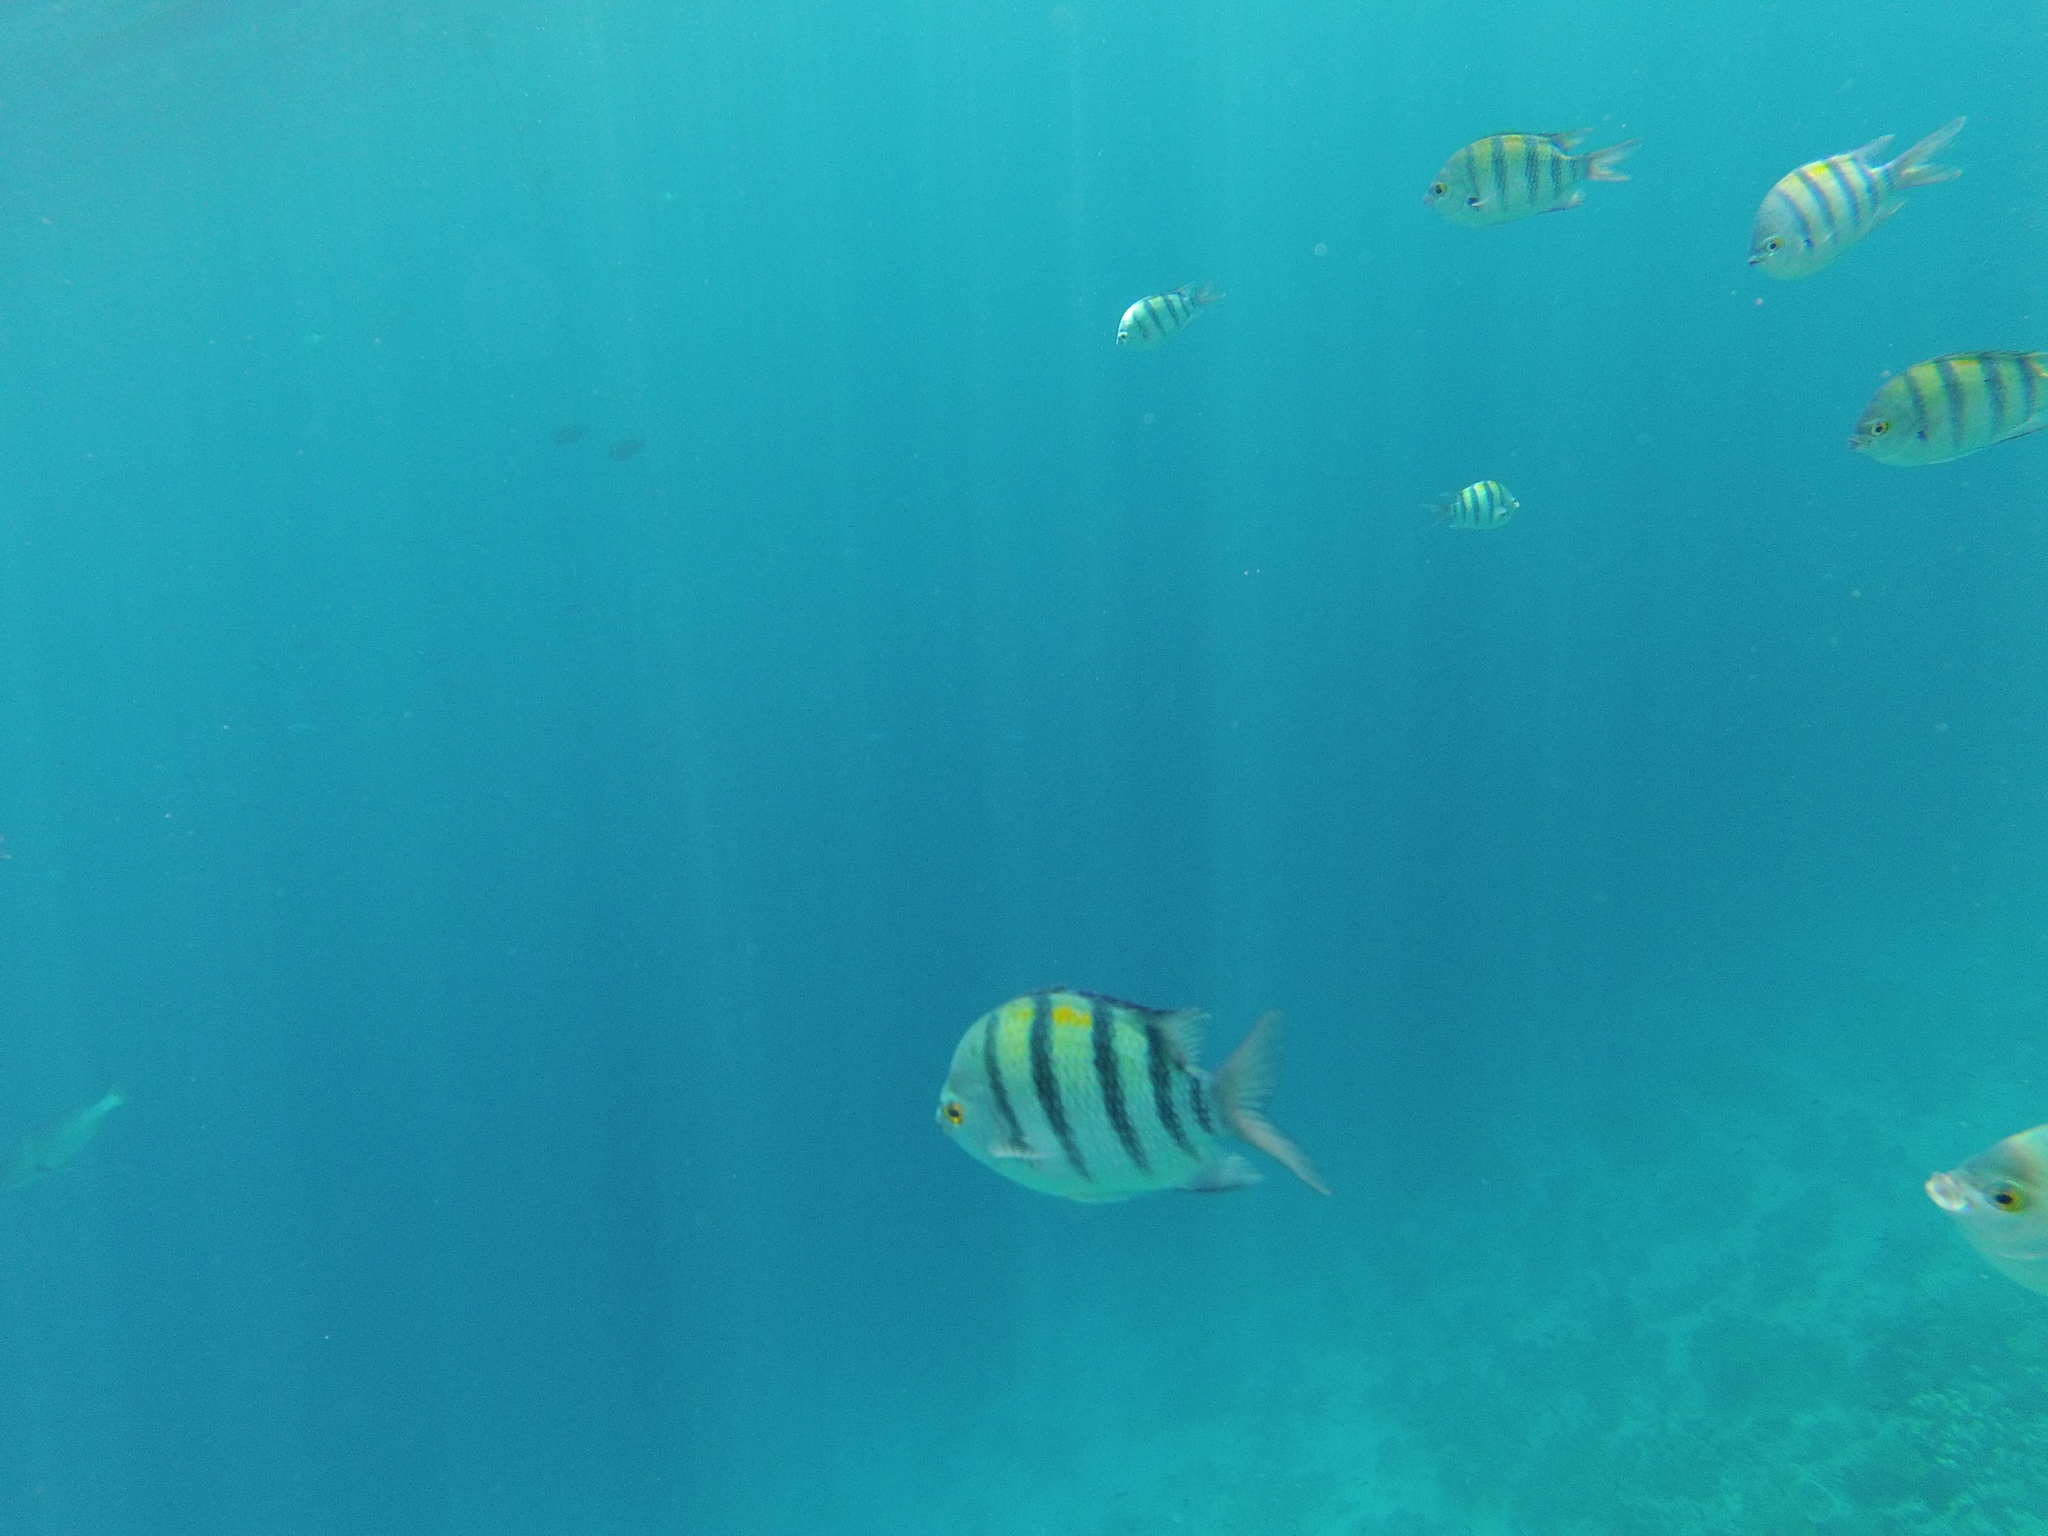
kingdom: Animalia
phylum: Chordata
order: Perciformes
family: Pomacentridae
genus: Abudefduf
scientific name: Abudefduf vaigiensis
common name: Indo-pacific sergeant
